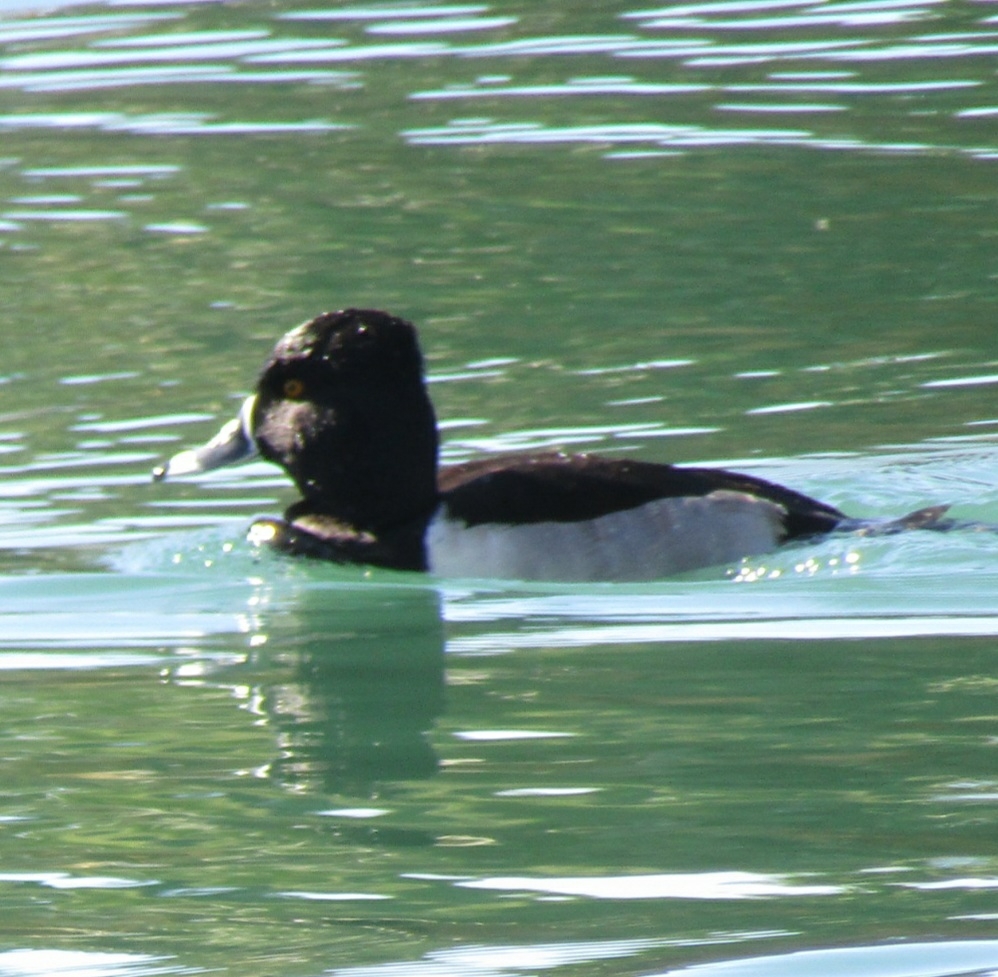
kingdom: Animalia
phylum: Chordata
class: Aves
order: Anseriformes
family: Anatidae
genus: Aythya
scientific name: Aythya collaris
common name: Ring-necked duck
